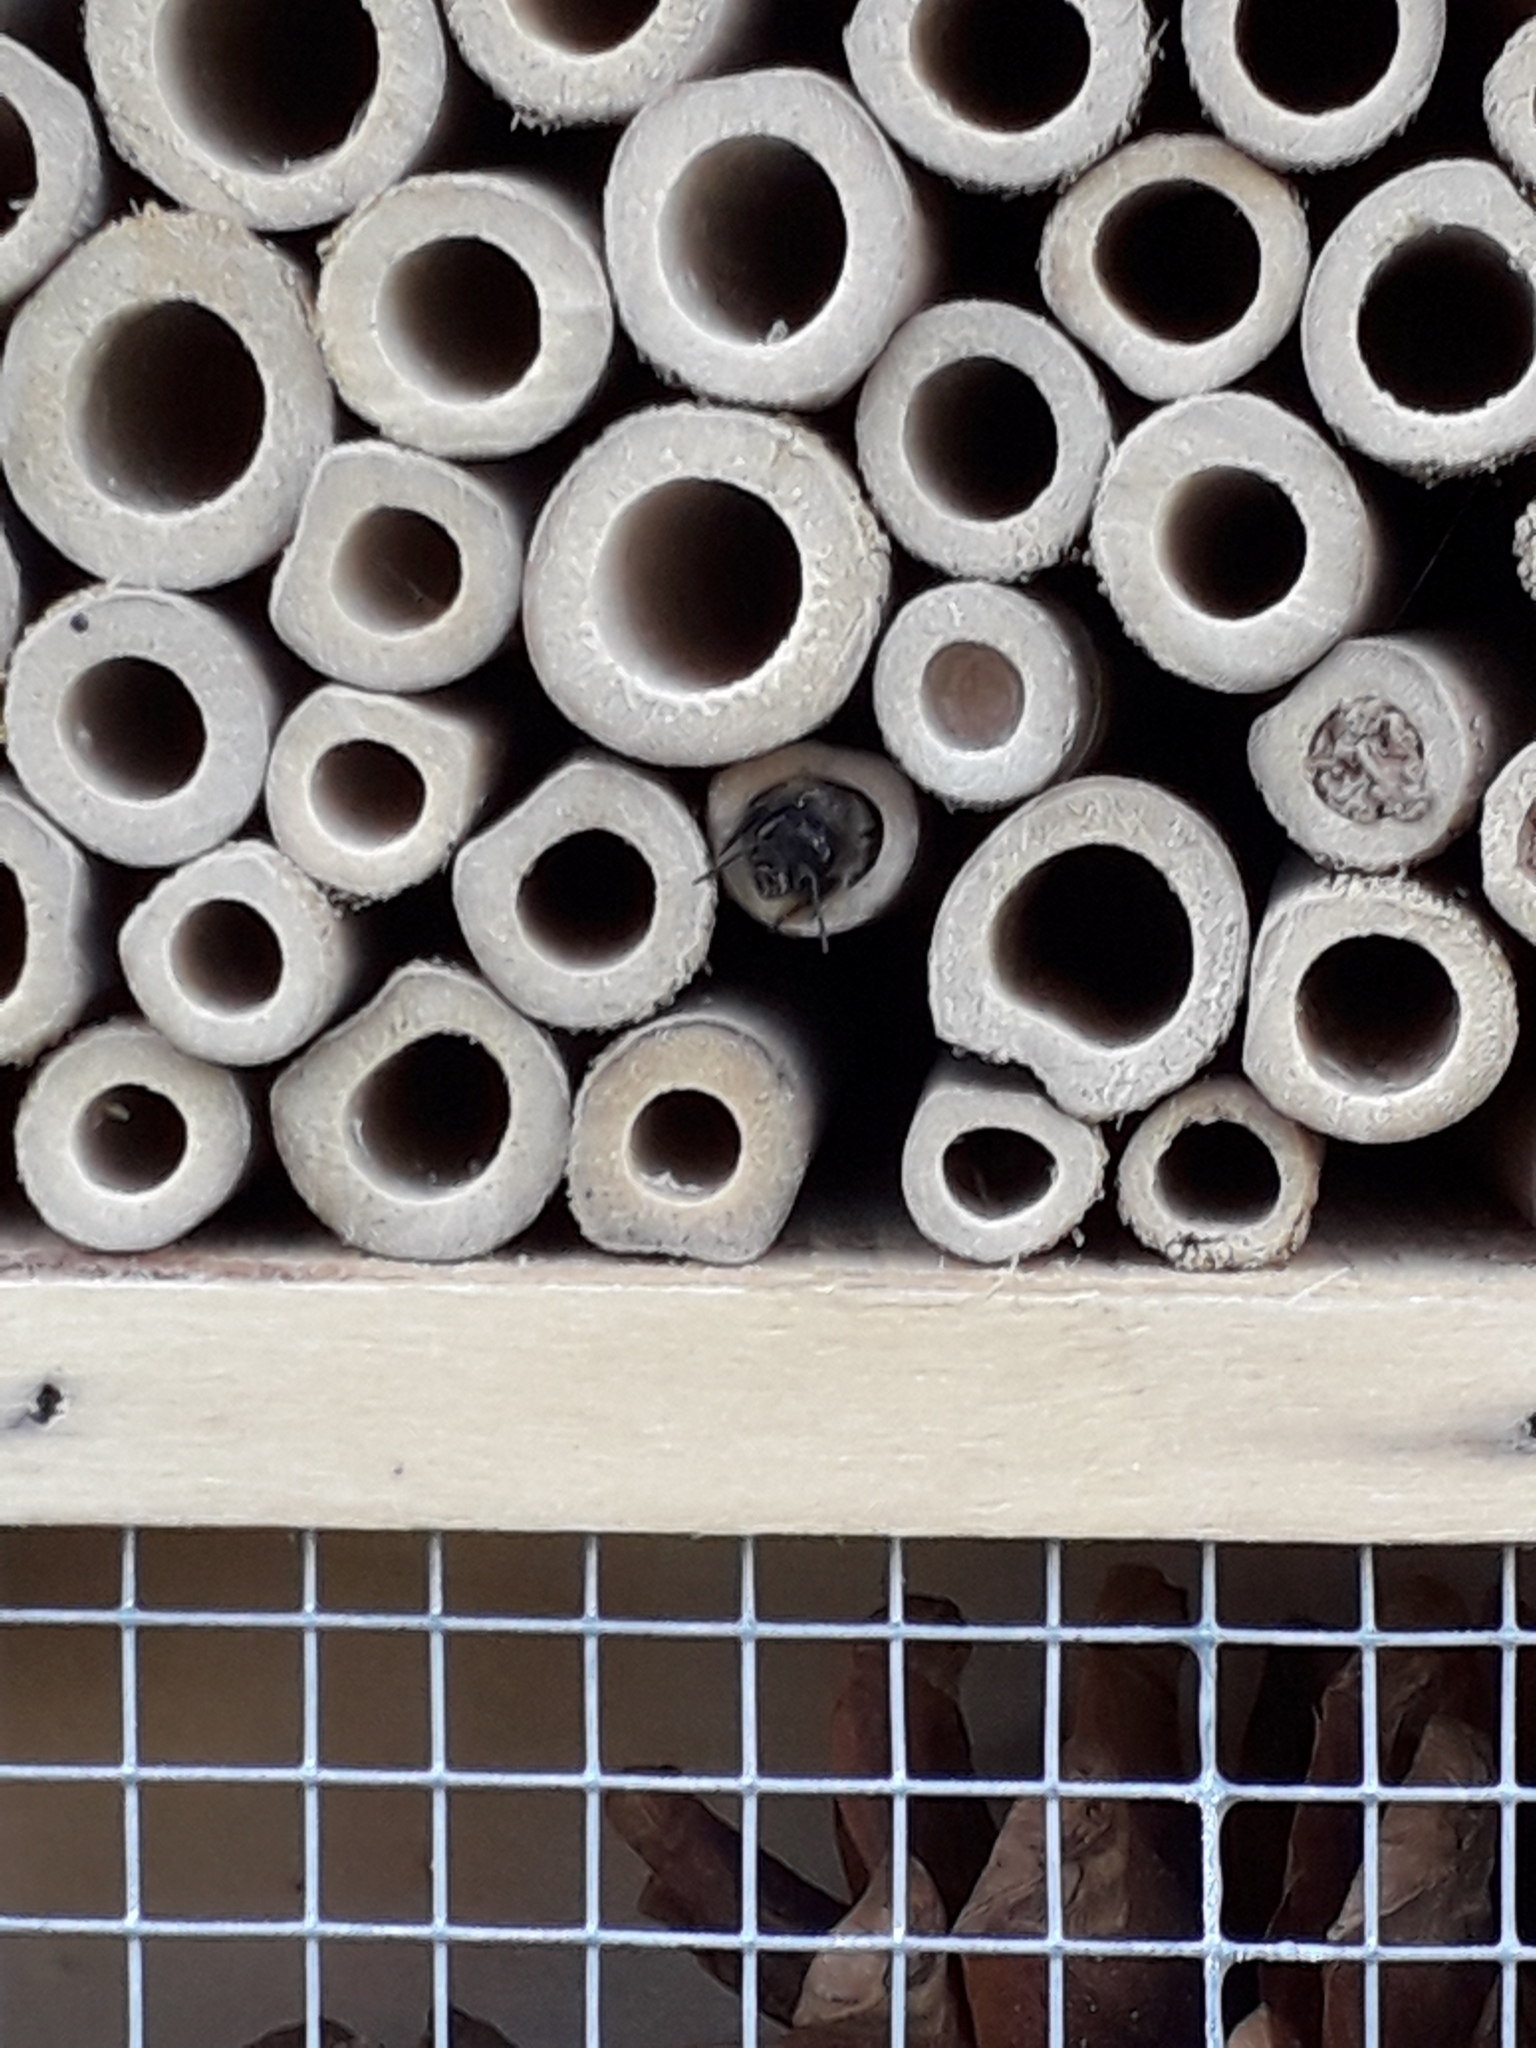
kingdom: Animalia
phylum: Arthropoda
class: Insecta
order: Hymenoptera
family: Megachilidae
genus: Osmia
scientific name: Osmia bicornis
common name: Red mason bee
